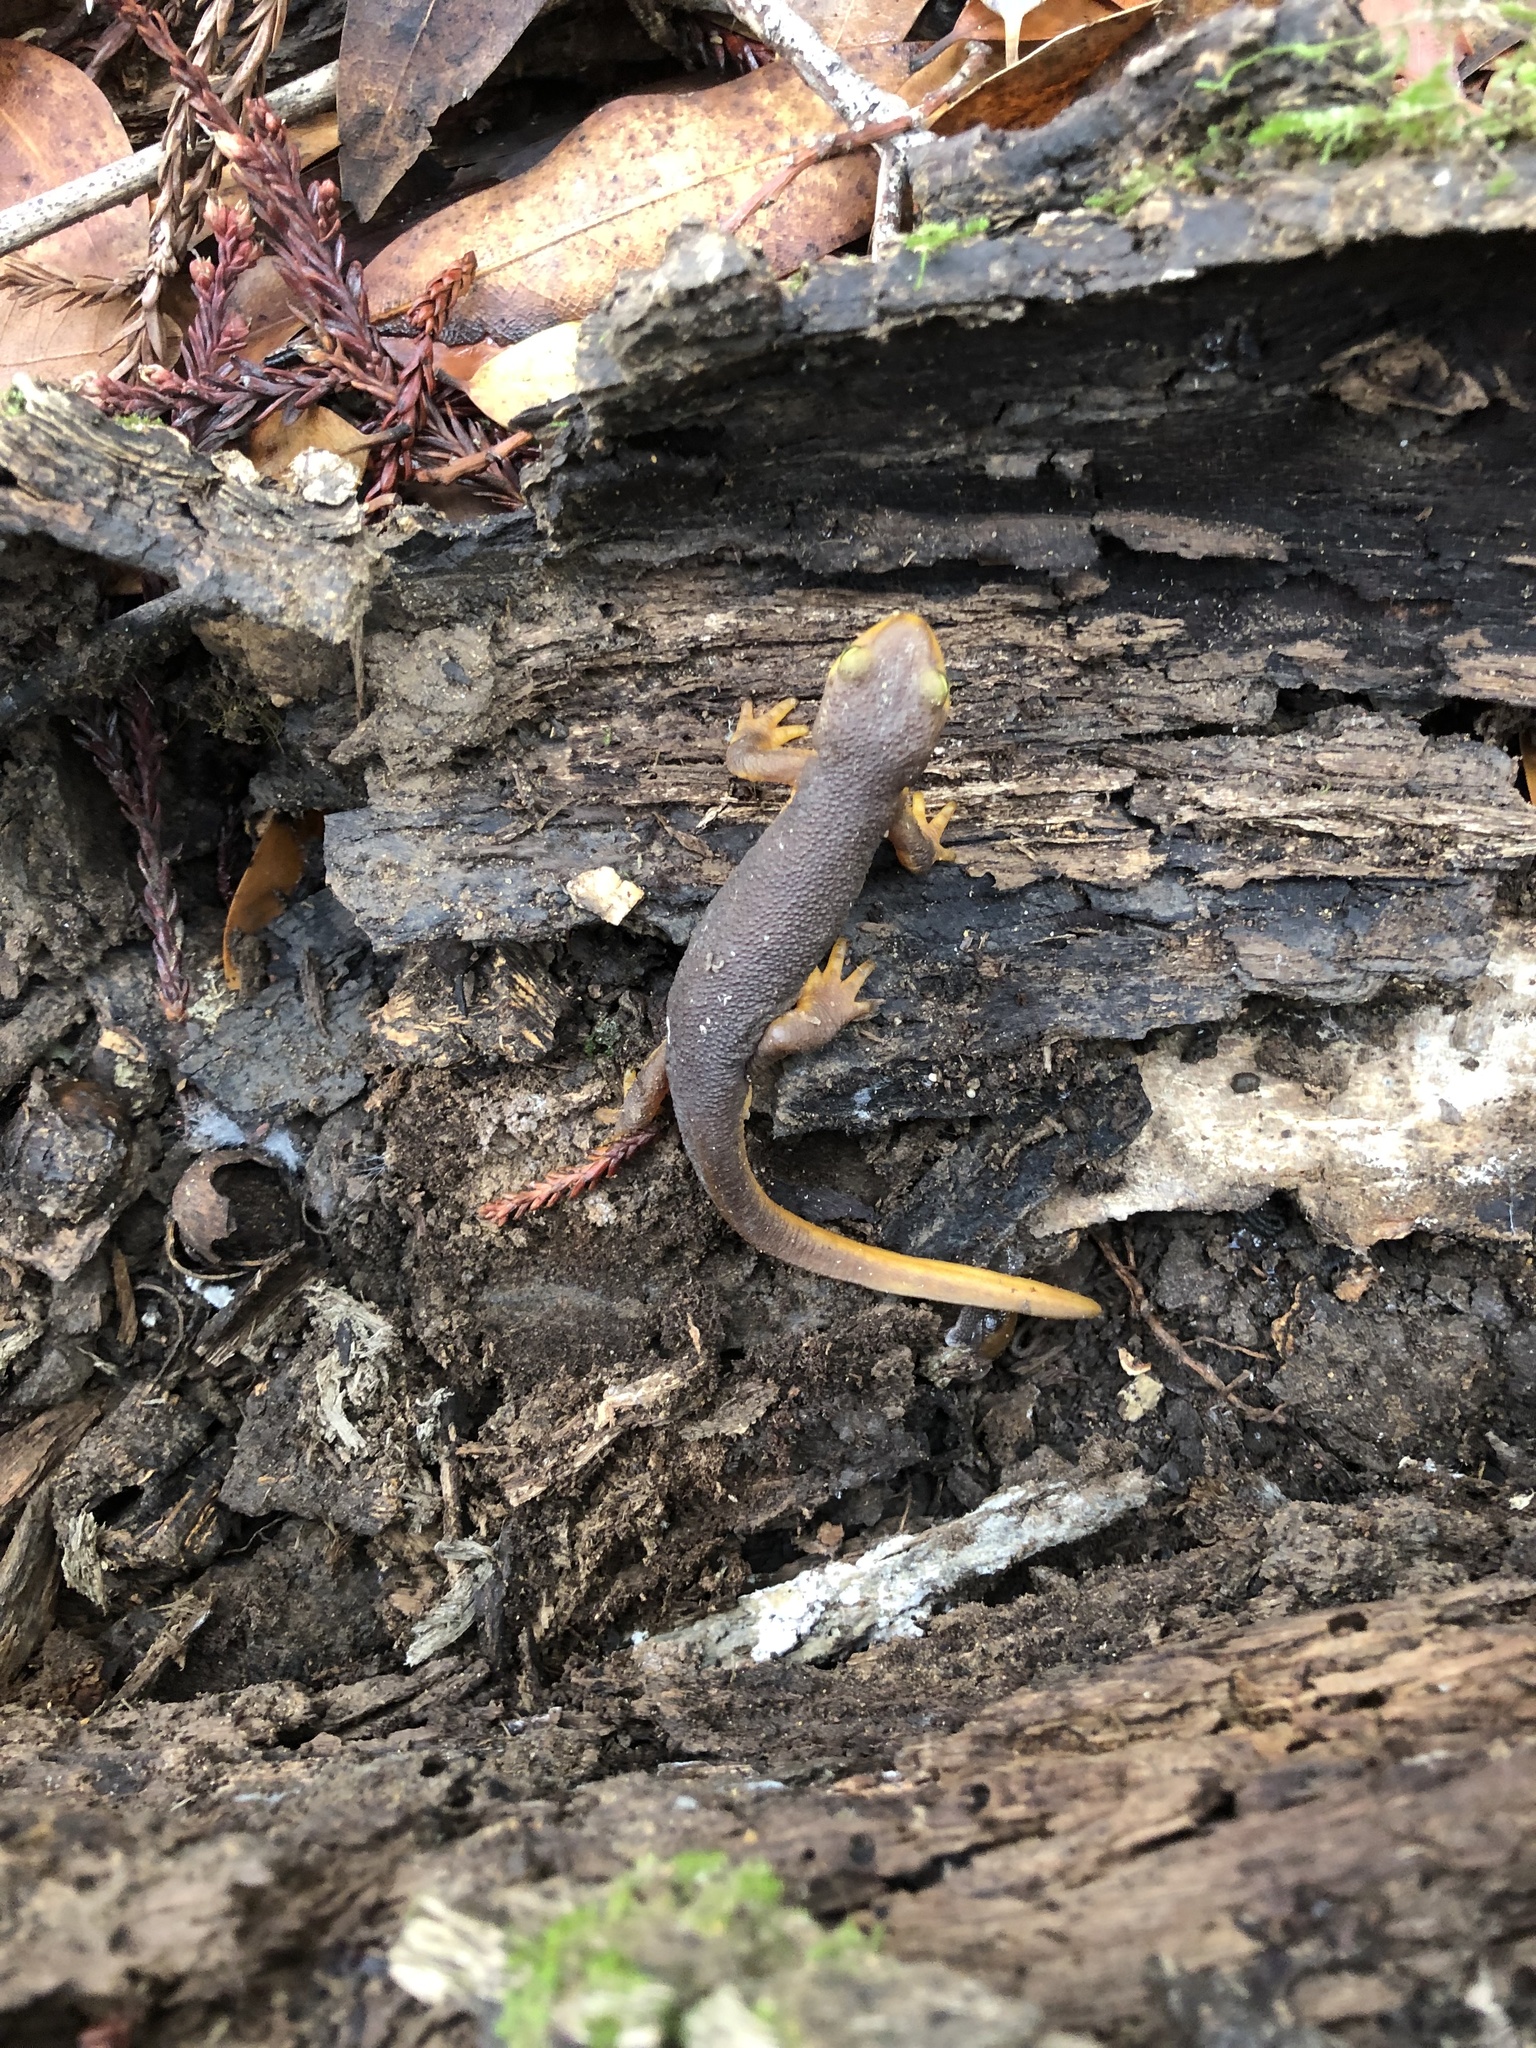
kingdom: Animalia
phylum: Chordata
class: Amphibia
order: Caudata
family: Salamandridae
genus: Taricha
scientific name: Taricha torosa
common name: California newt
